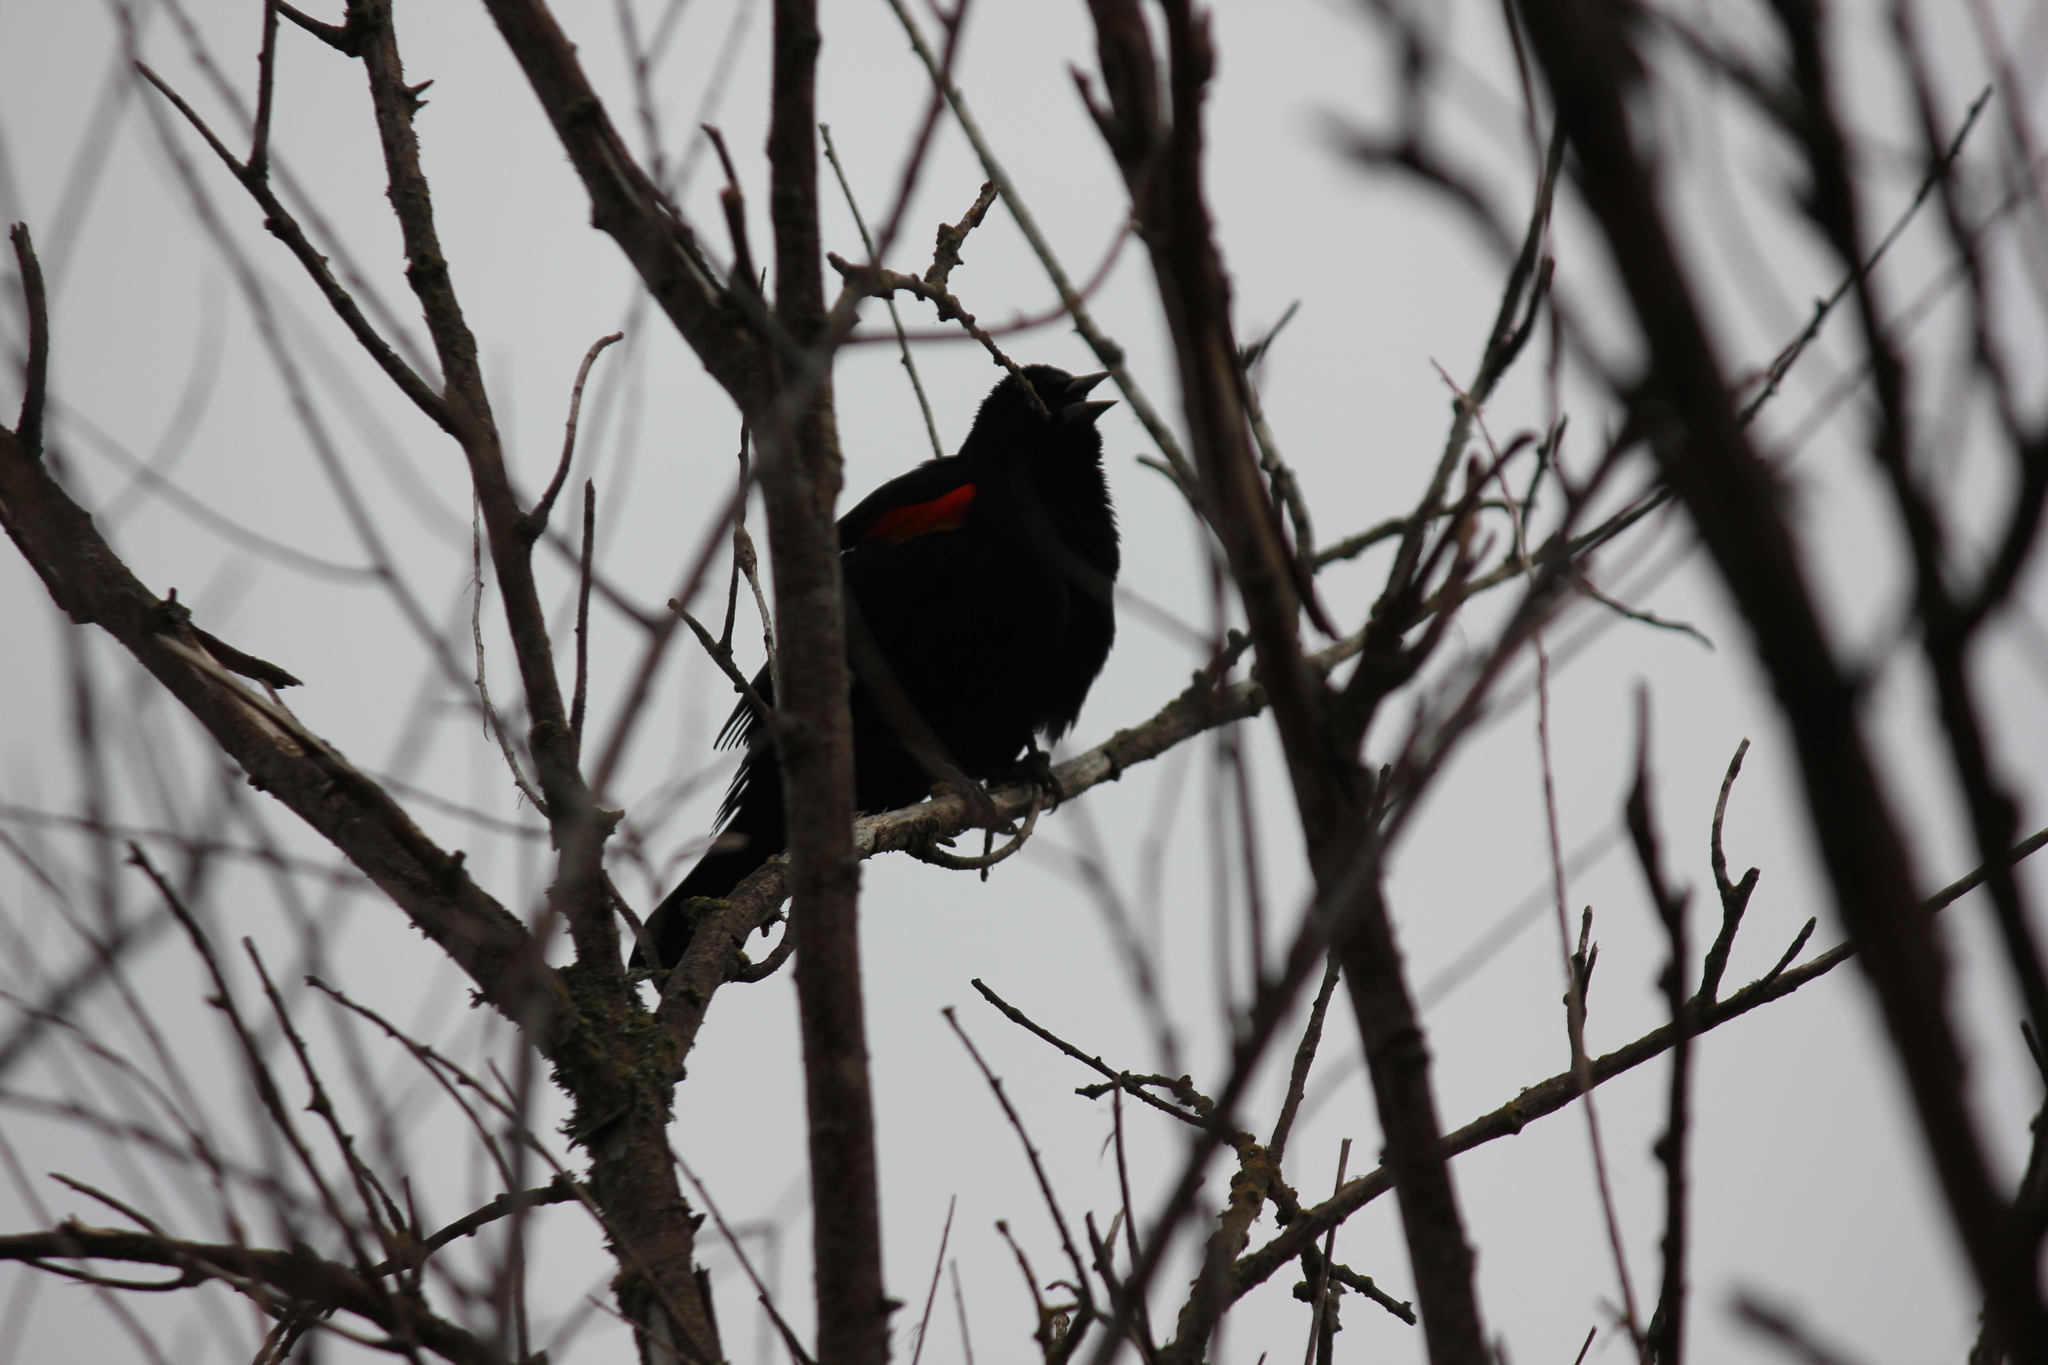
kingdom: Animalia
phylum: Chordata
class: Aves
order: Passeriformes
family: Icteridae
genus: Agelaius
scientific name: Agelaius phoeniceus
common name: Red-winged blackbird
